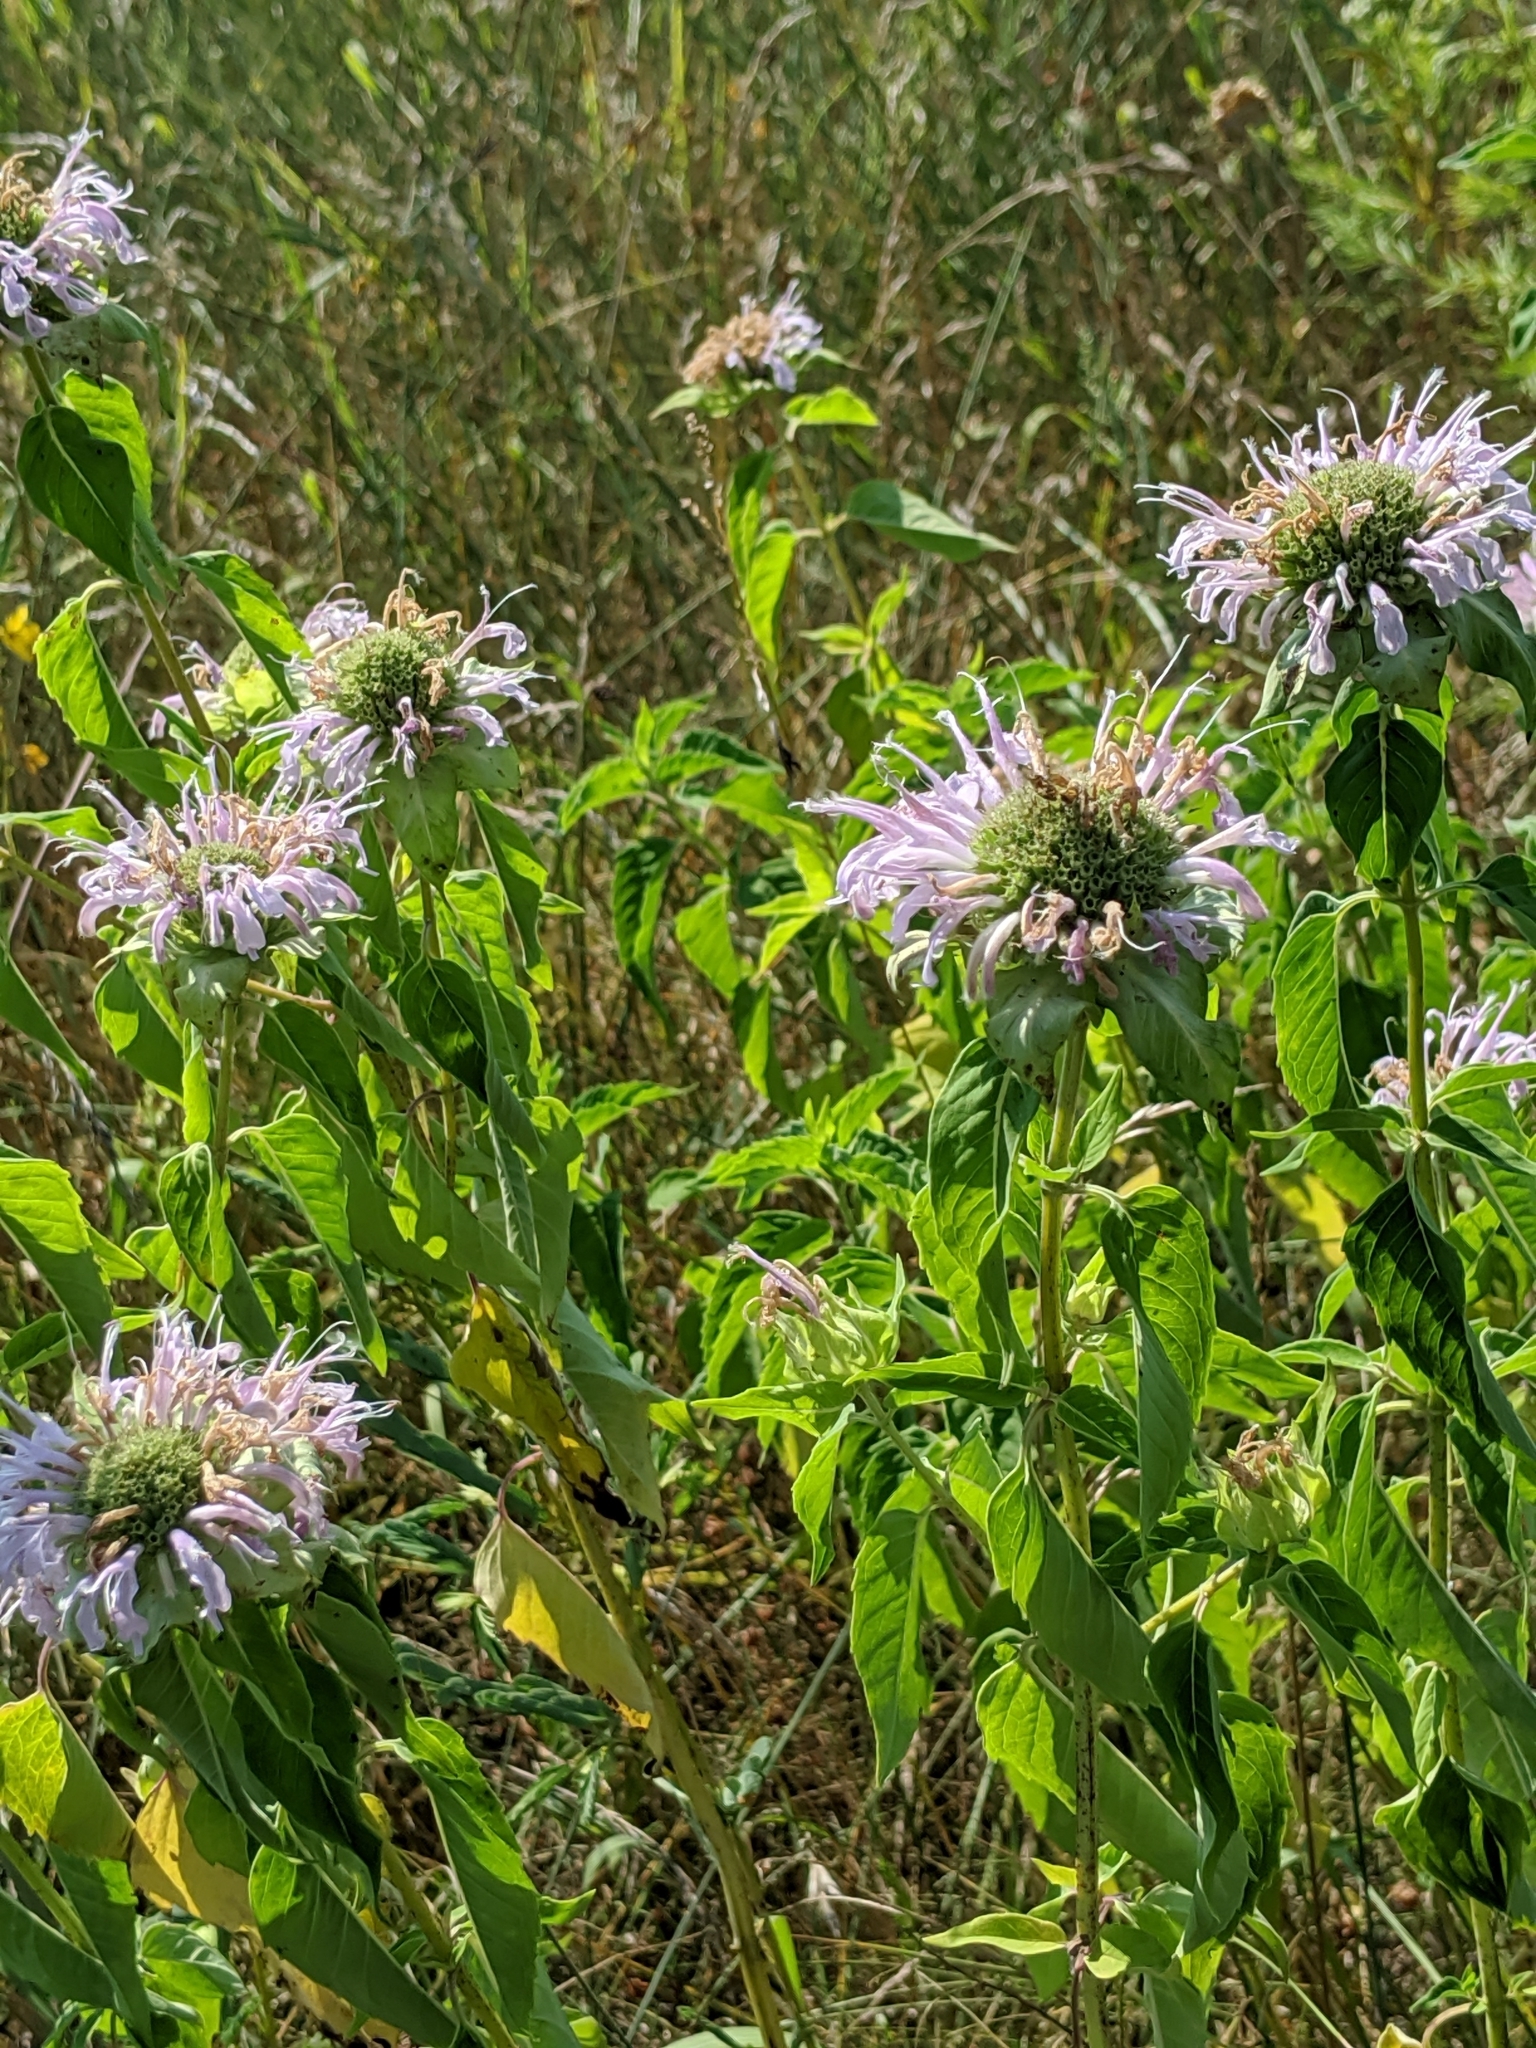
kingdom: Plantae
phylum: Tracheophyta
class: Magnoliopsida
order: Lamiales
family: Lamiaceae
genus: Monarda
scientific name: Monarda fistulosa
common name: Purple beebalm
